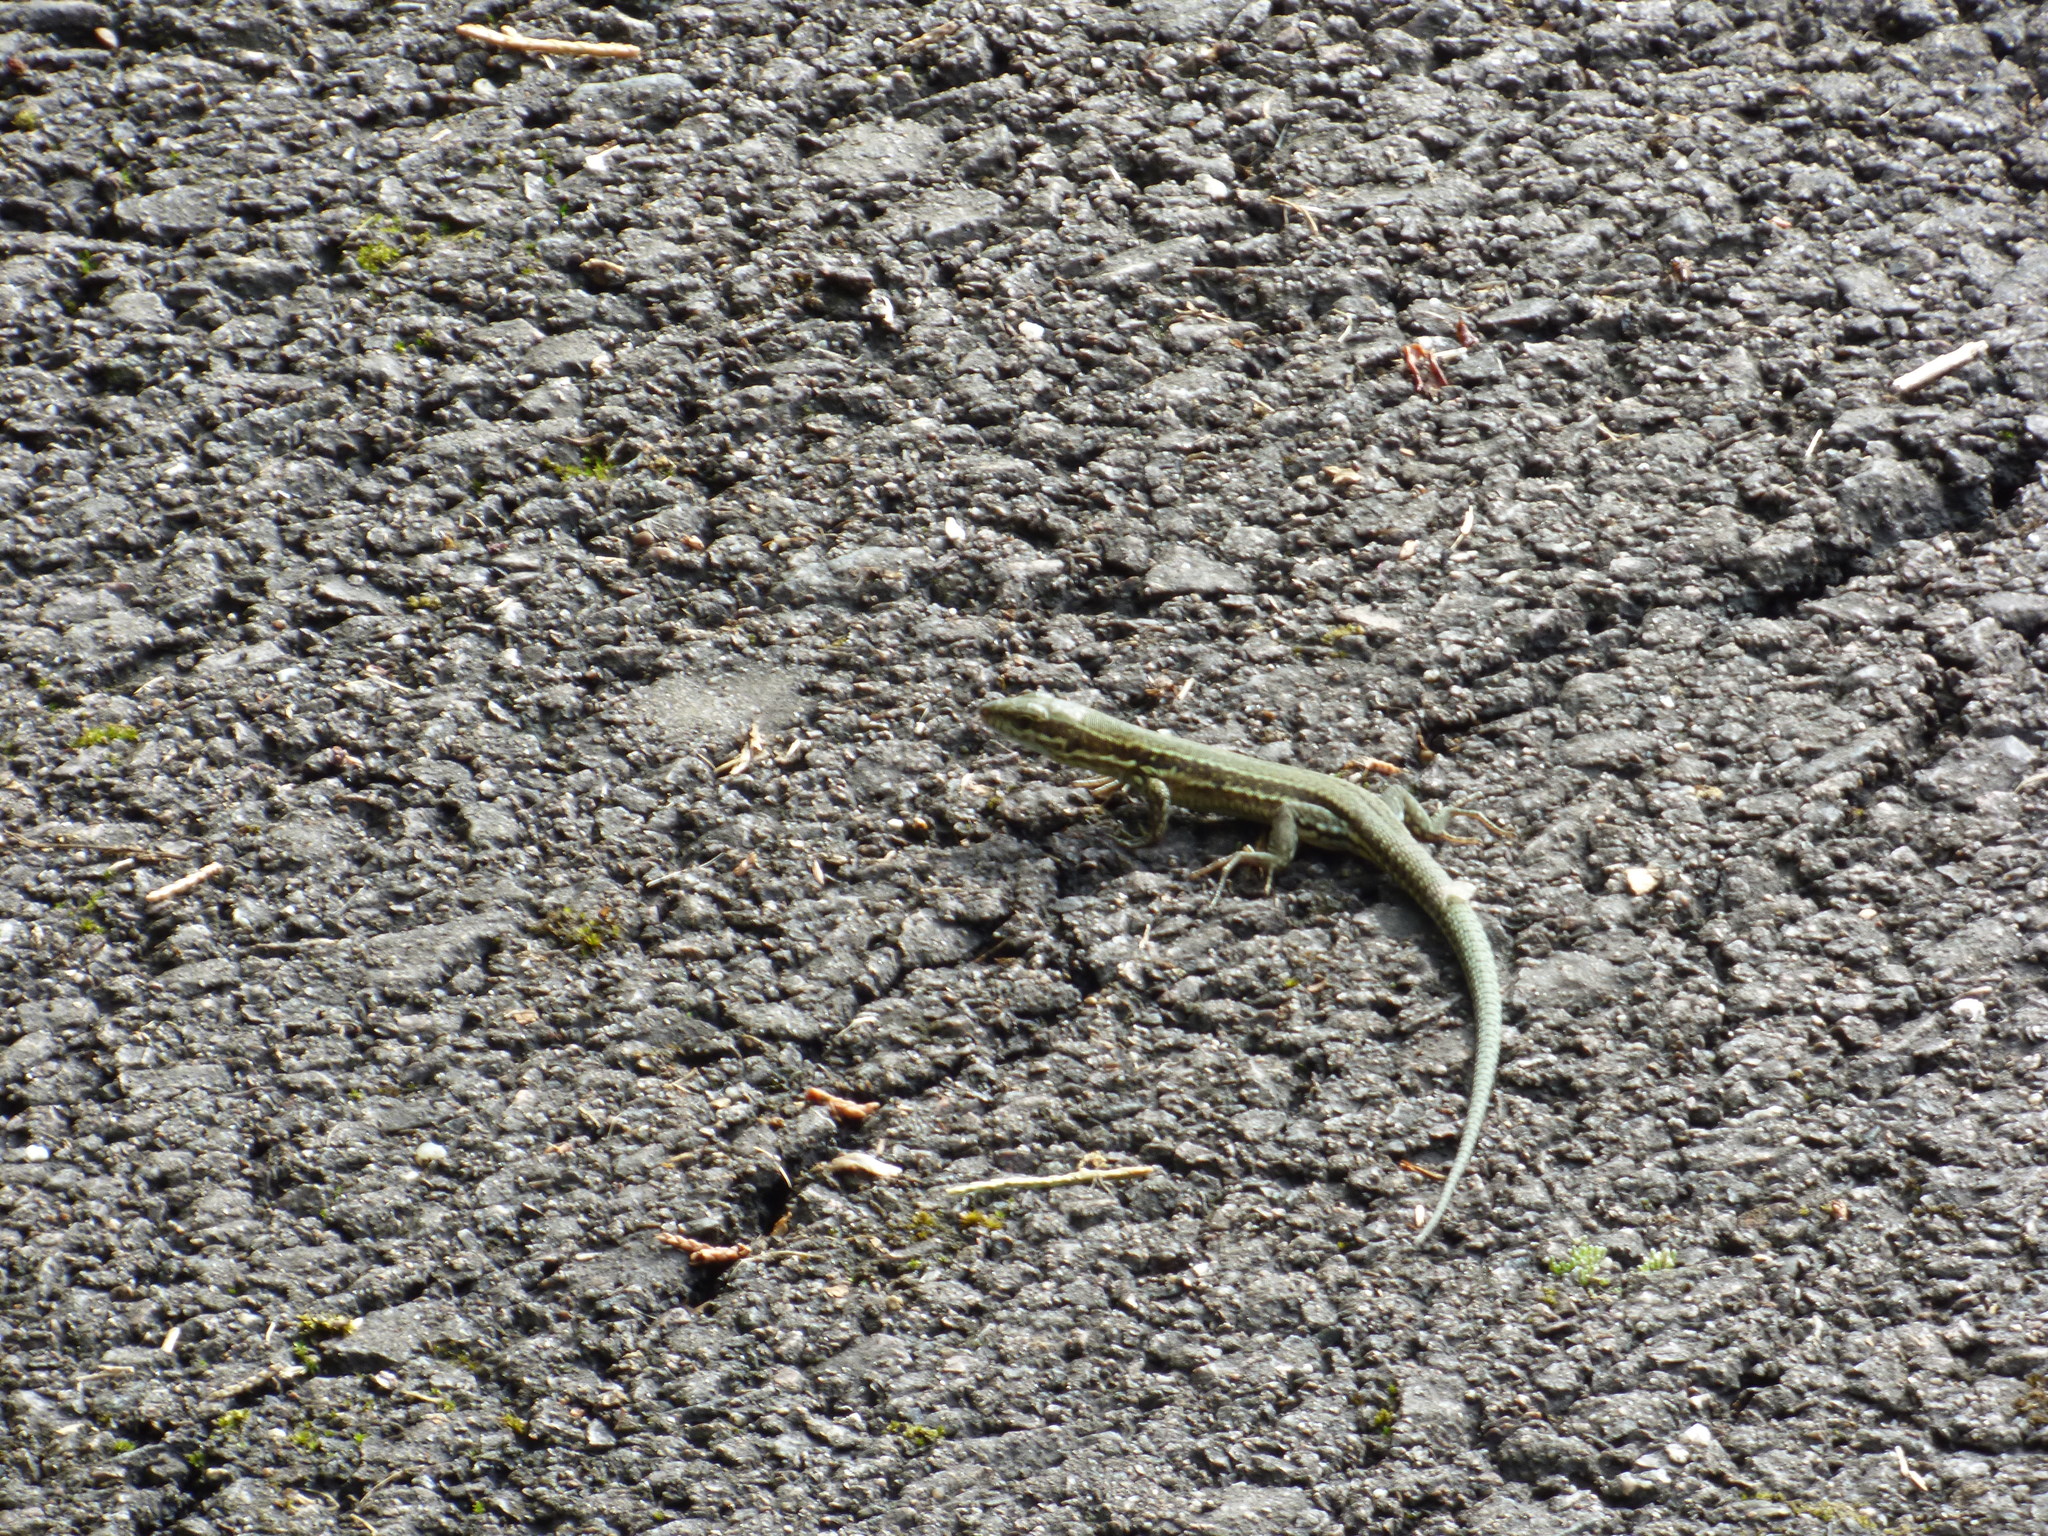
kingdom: Animalia
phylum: Chordata
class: Squamata
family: Lacertidae
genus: Podarcis
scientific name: Podarcis muralis
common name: Common wall lizard
